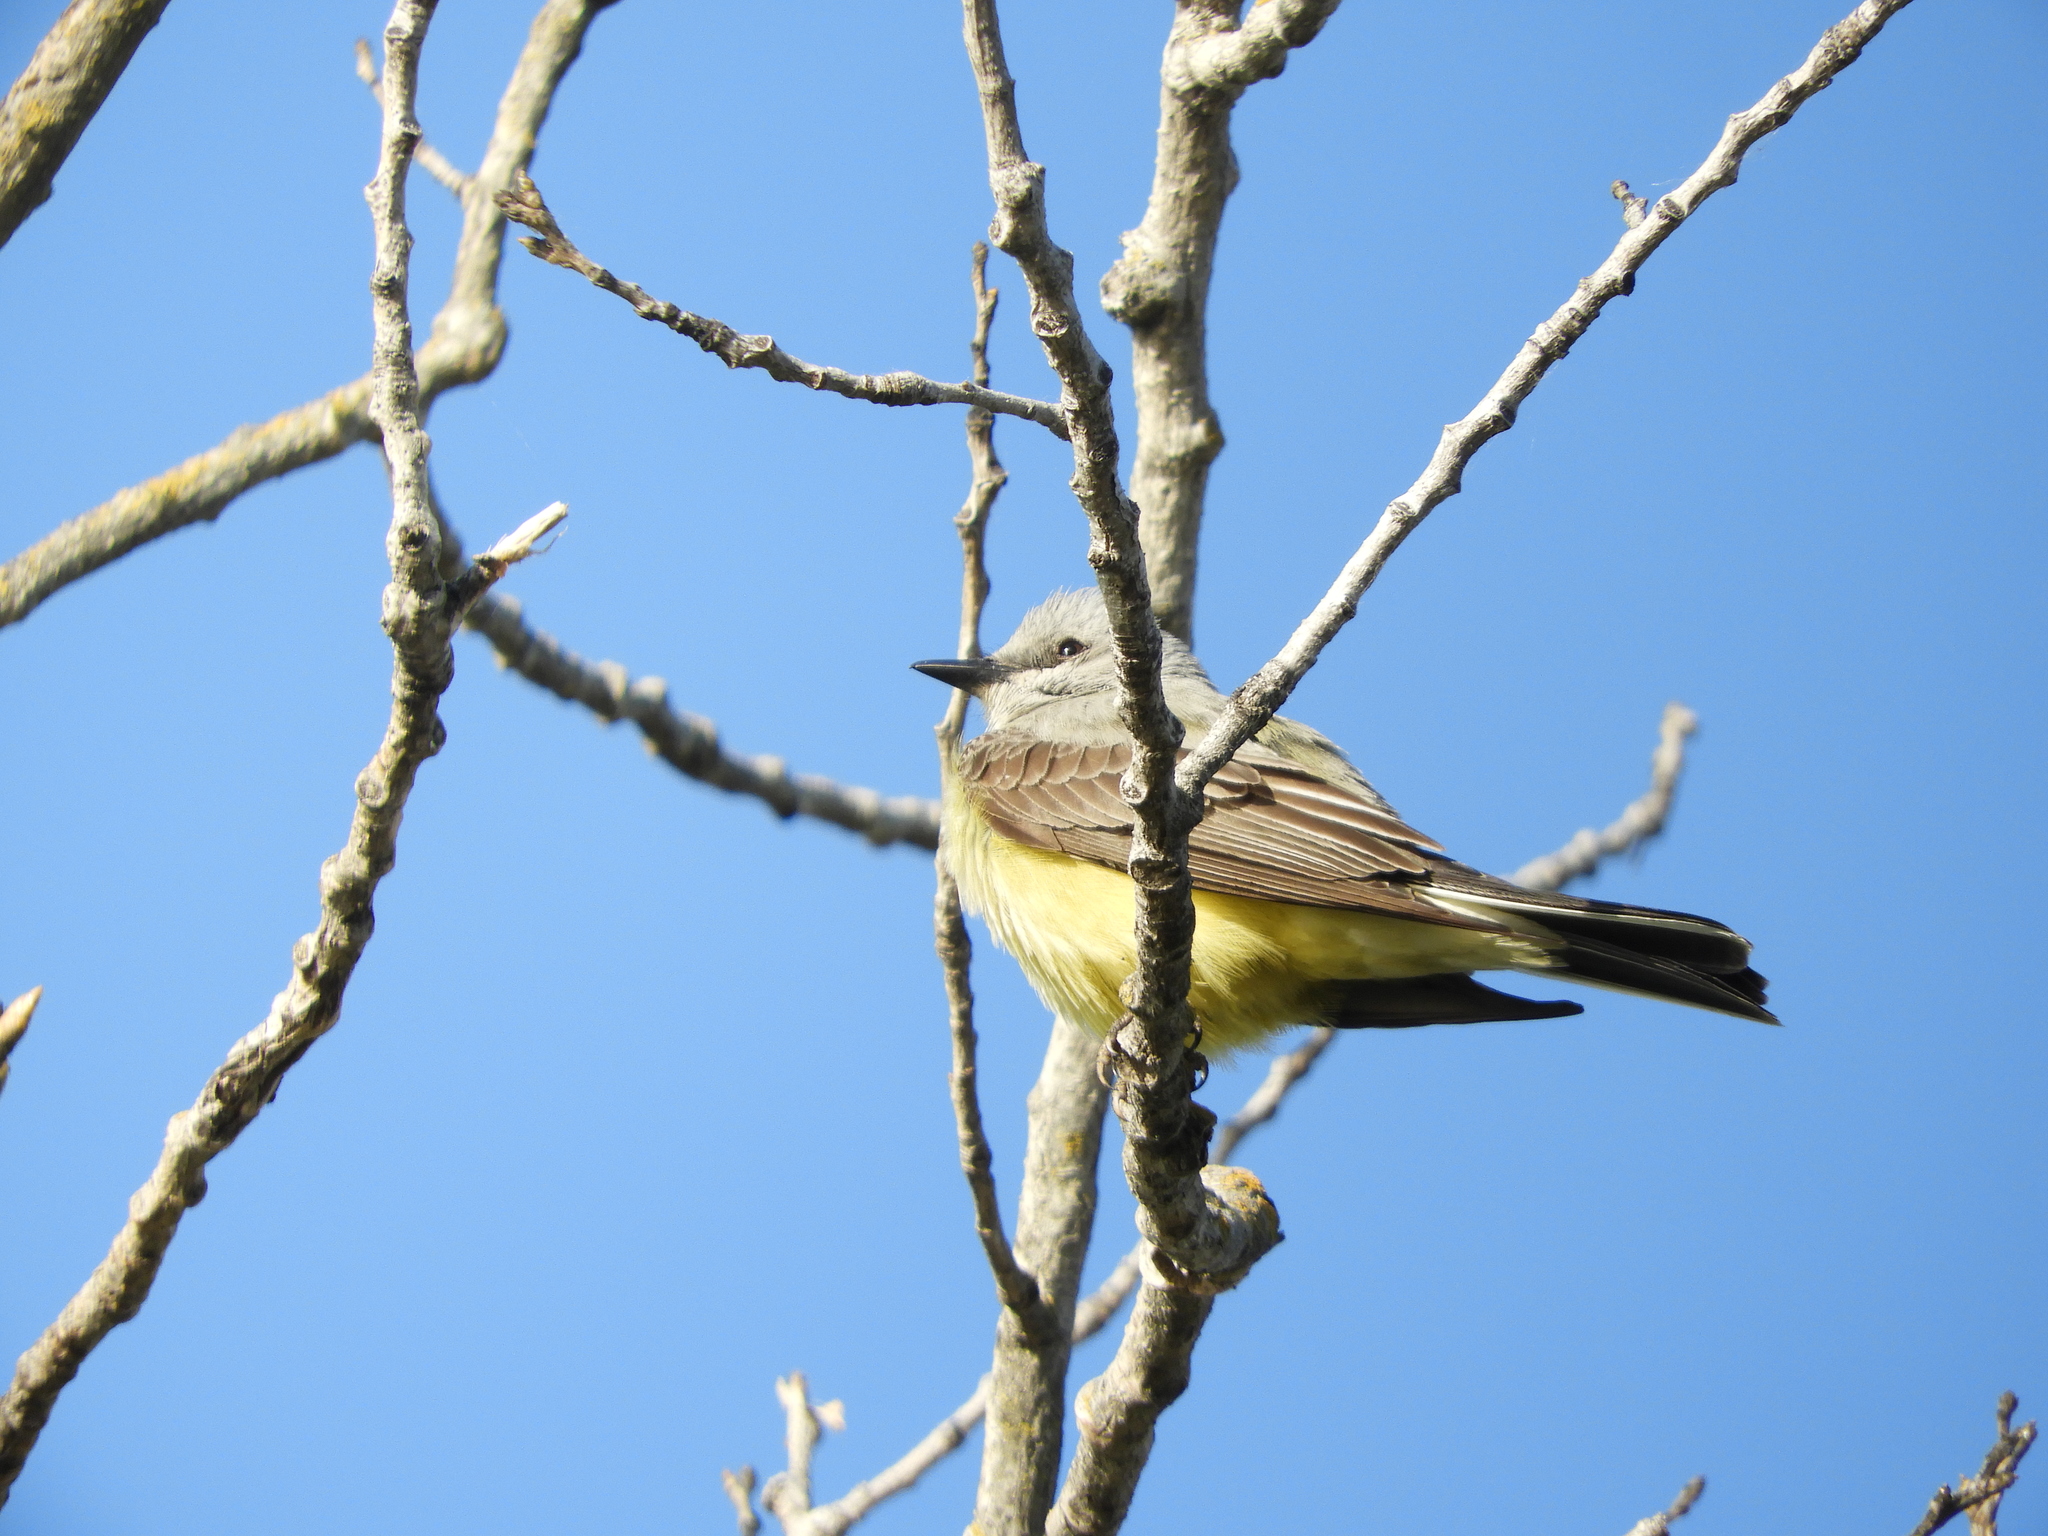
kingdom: Animalia
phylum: Chordata
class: Aves
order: Passeriformes
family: Tyrannidae
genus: Tyrannus
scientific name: Tyrannus verticalis
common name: Western kingbird
